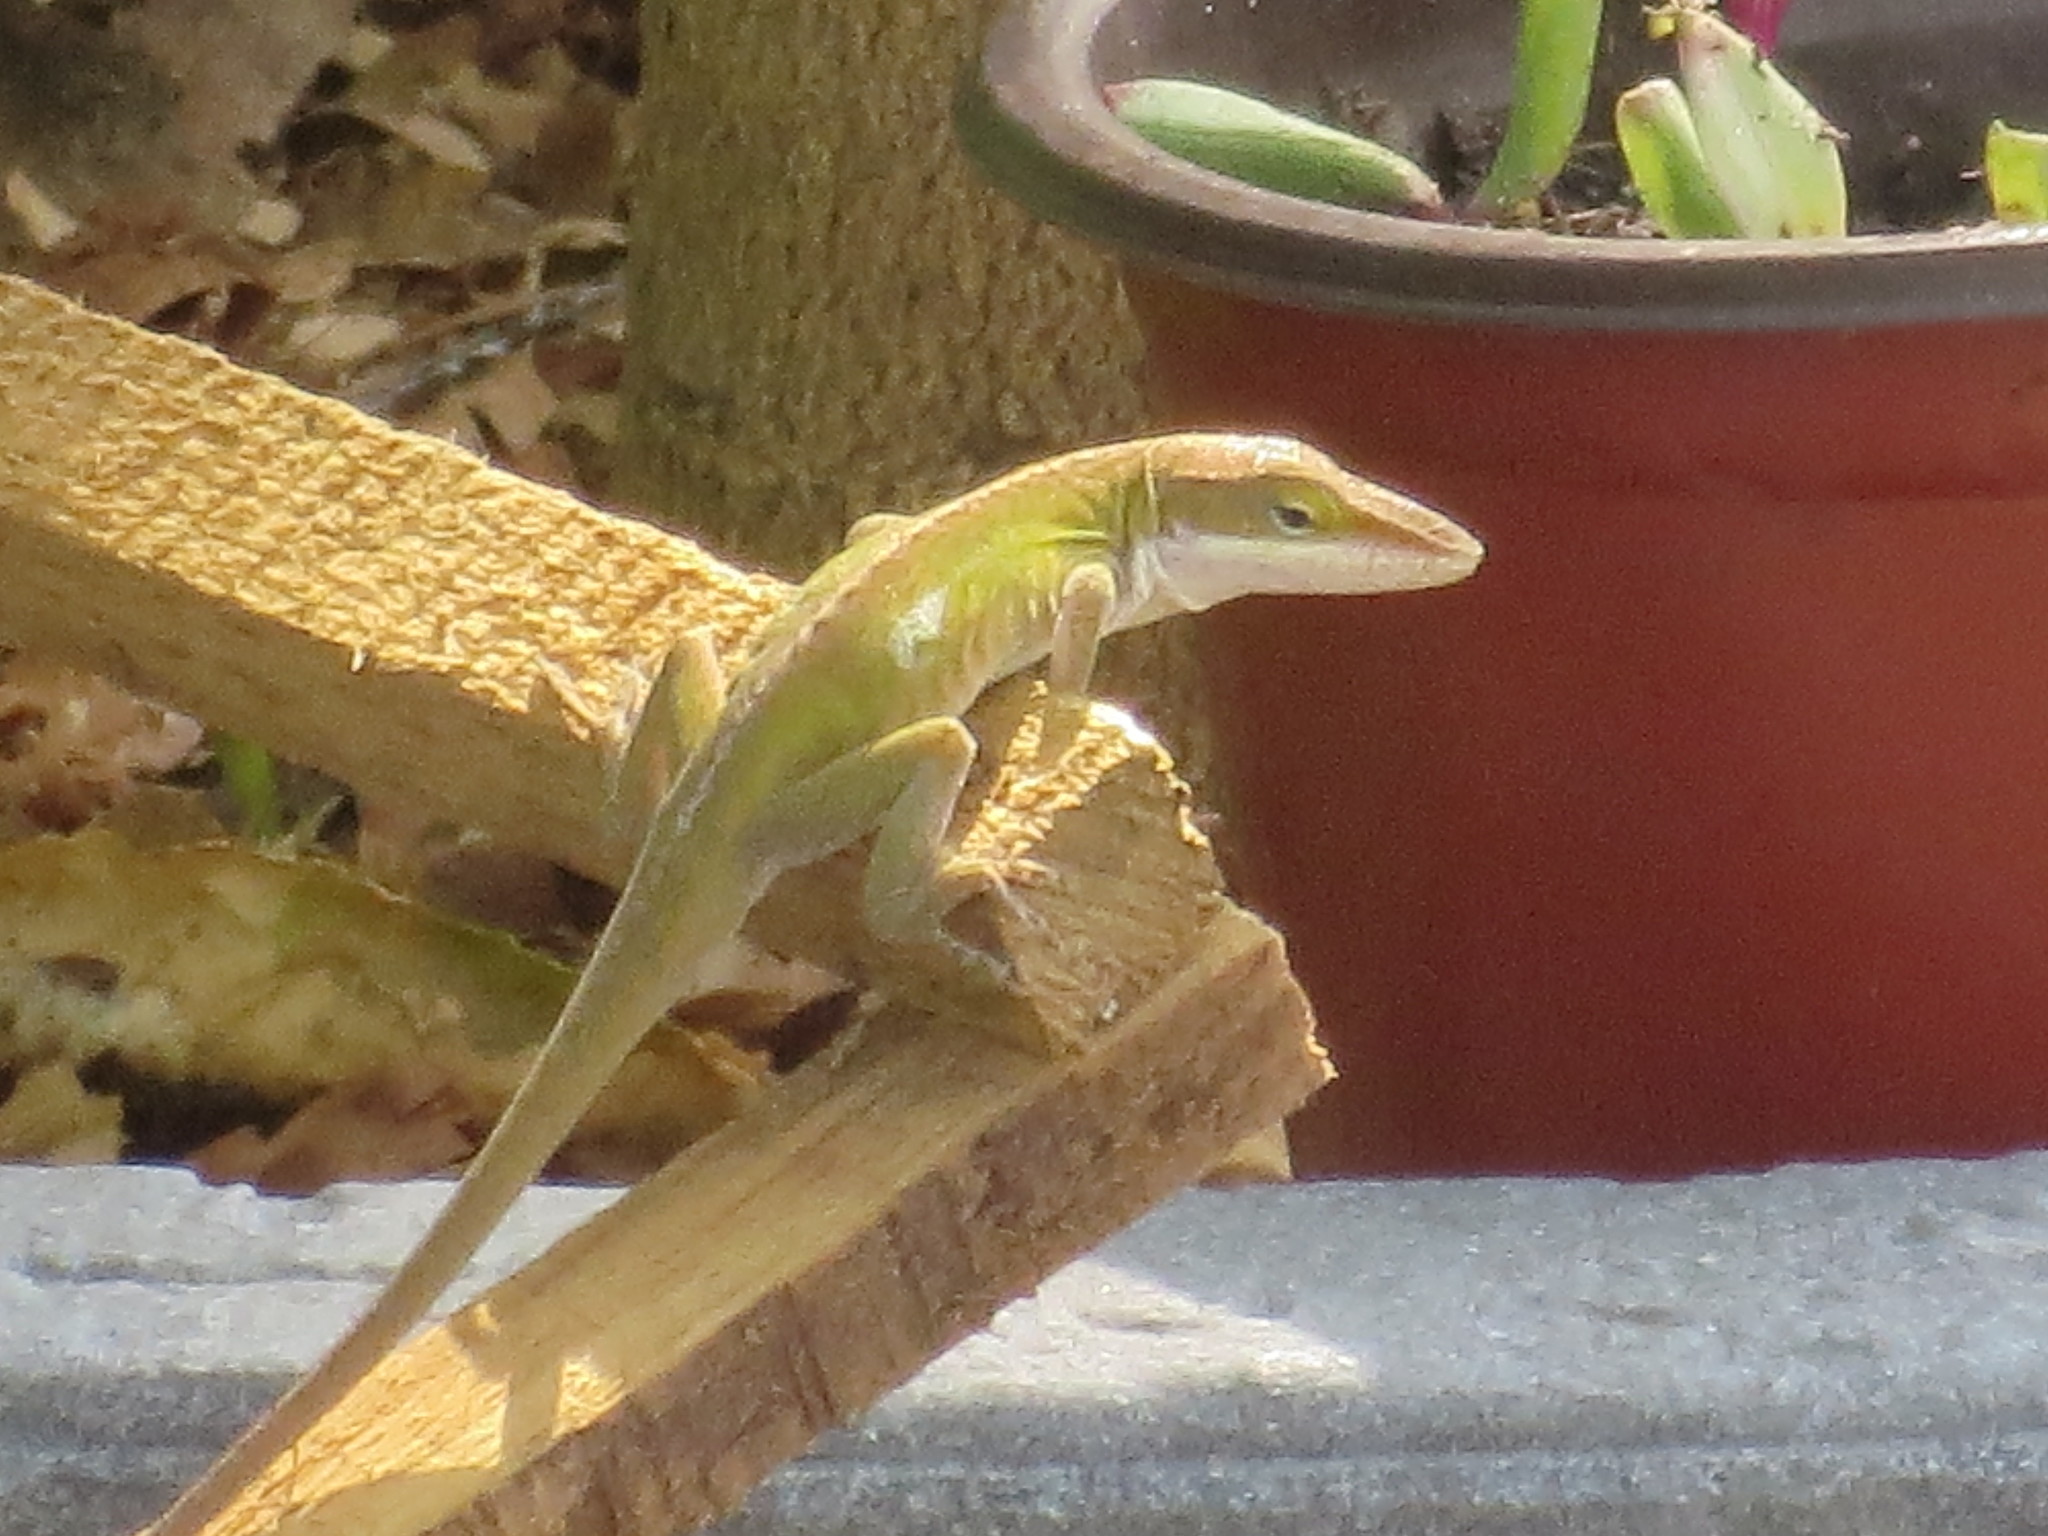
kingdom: Animalia
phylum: Chordata
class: Squamata
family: Dactyloidae
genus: Anolis
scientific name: Anolis carolinensis
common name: Green anole
